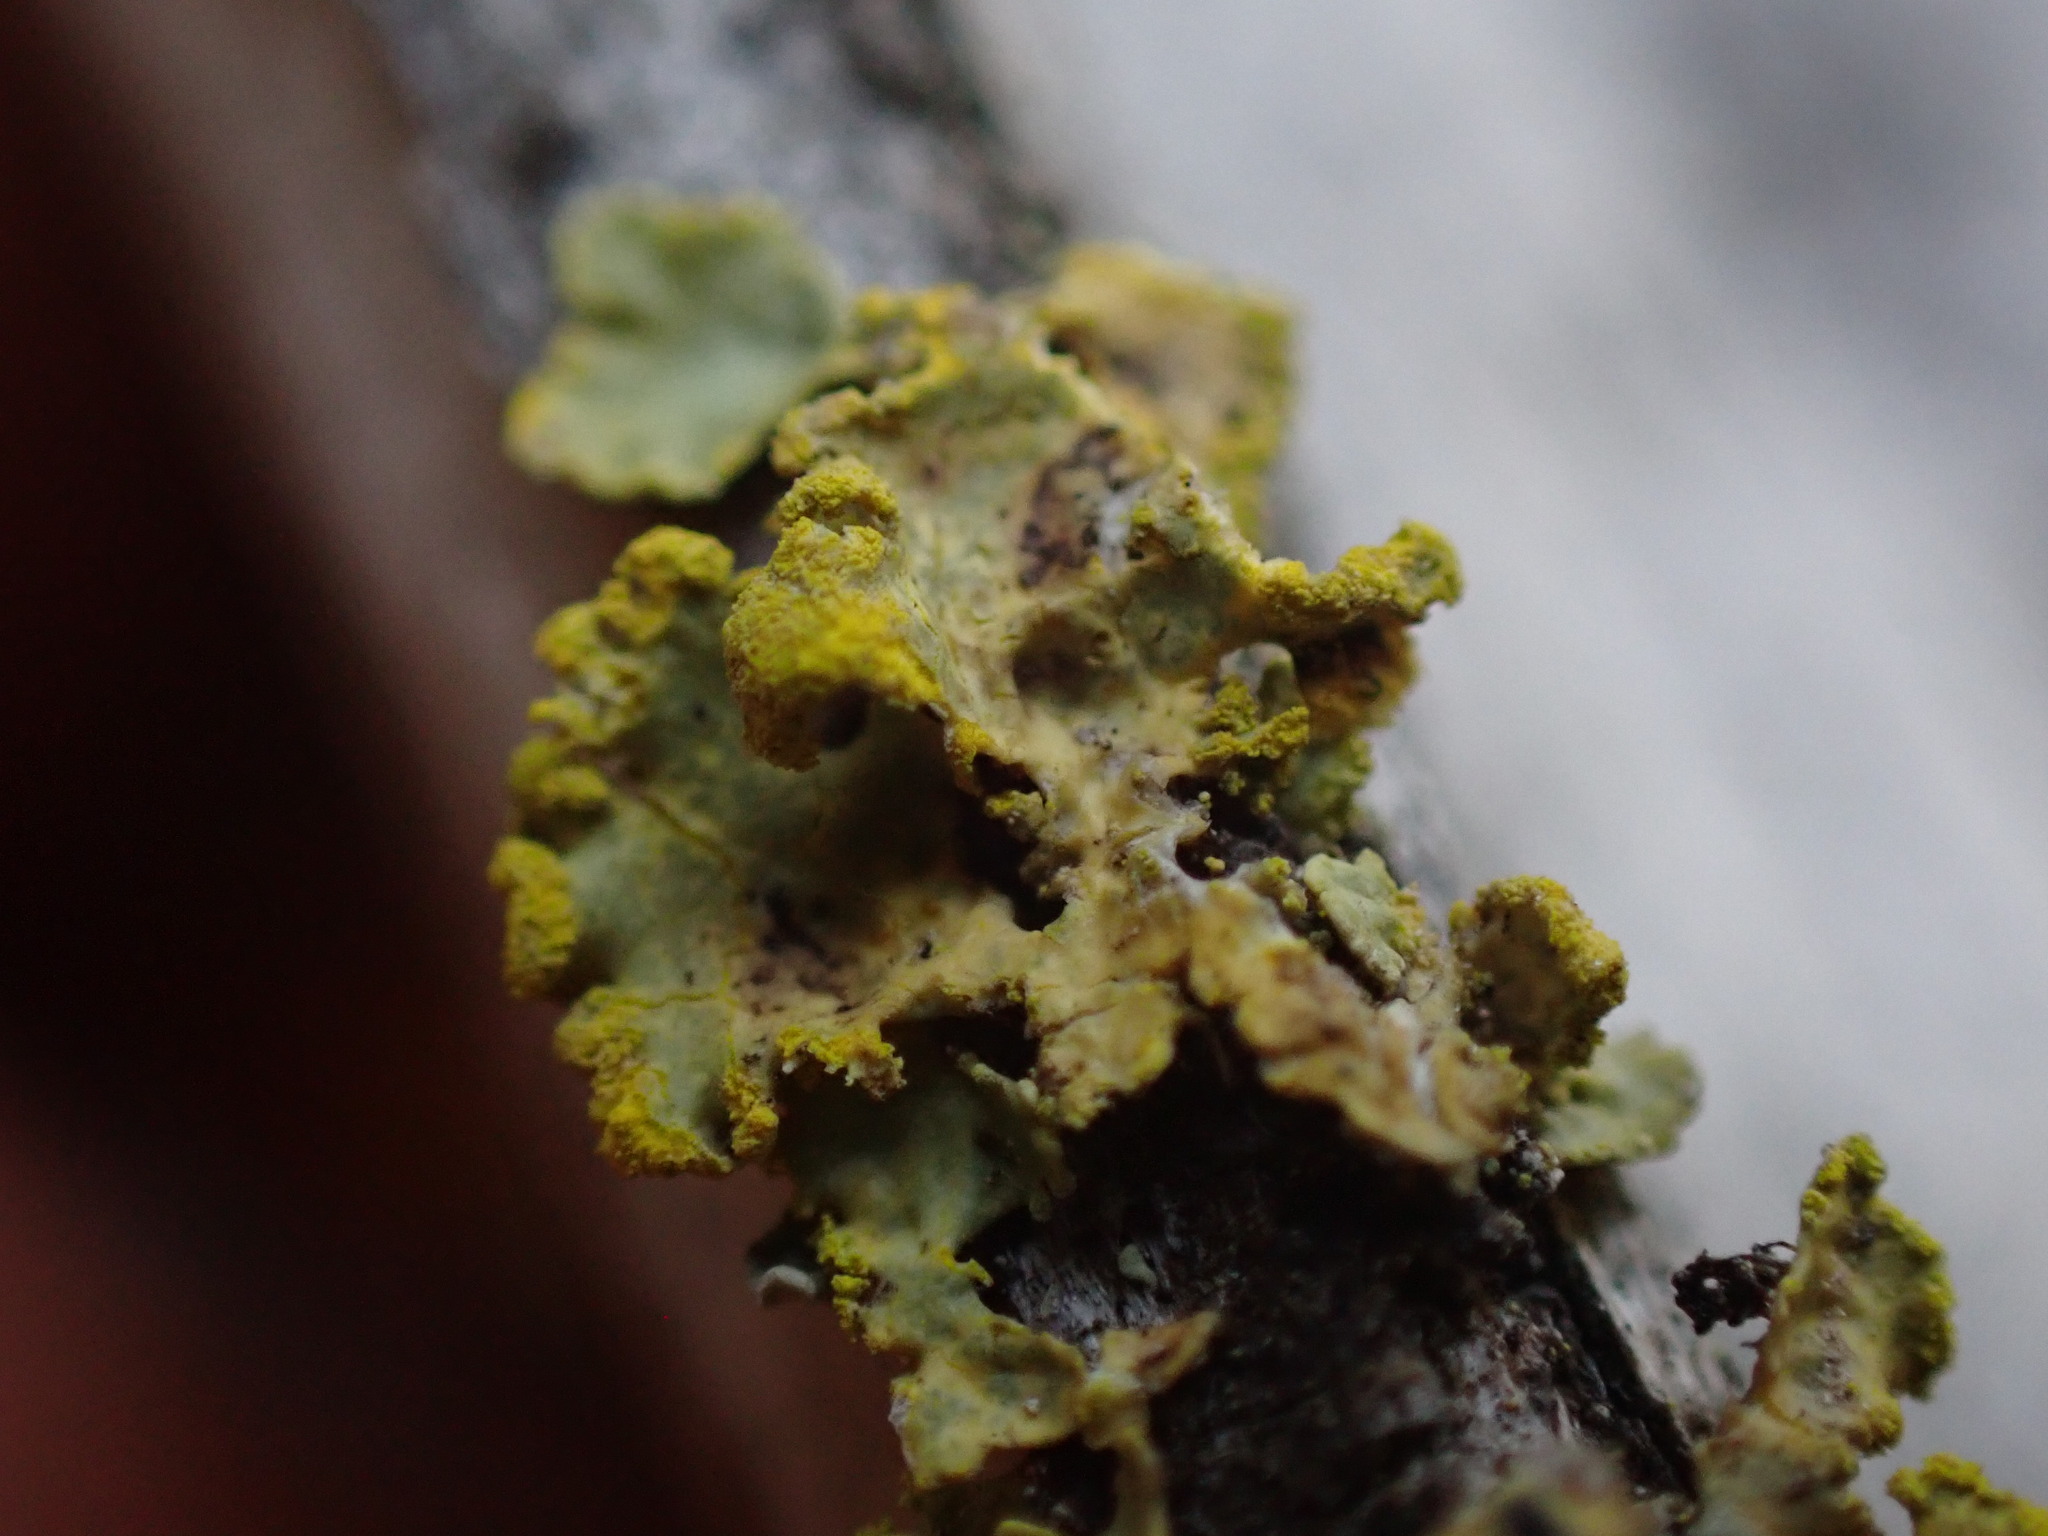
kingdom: Fungi
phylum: Ascomycota
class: Lecanoromycetes
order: Lecanorales
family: Parmeliaceae
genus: Vulpicida
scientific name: Vulpicida pinastri
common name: Powdered sunshine lichen
